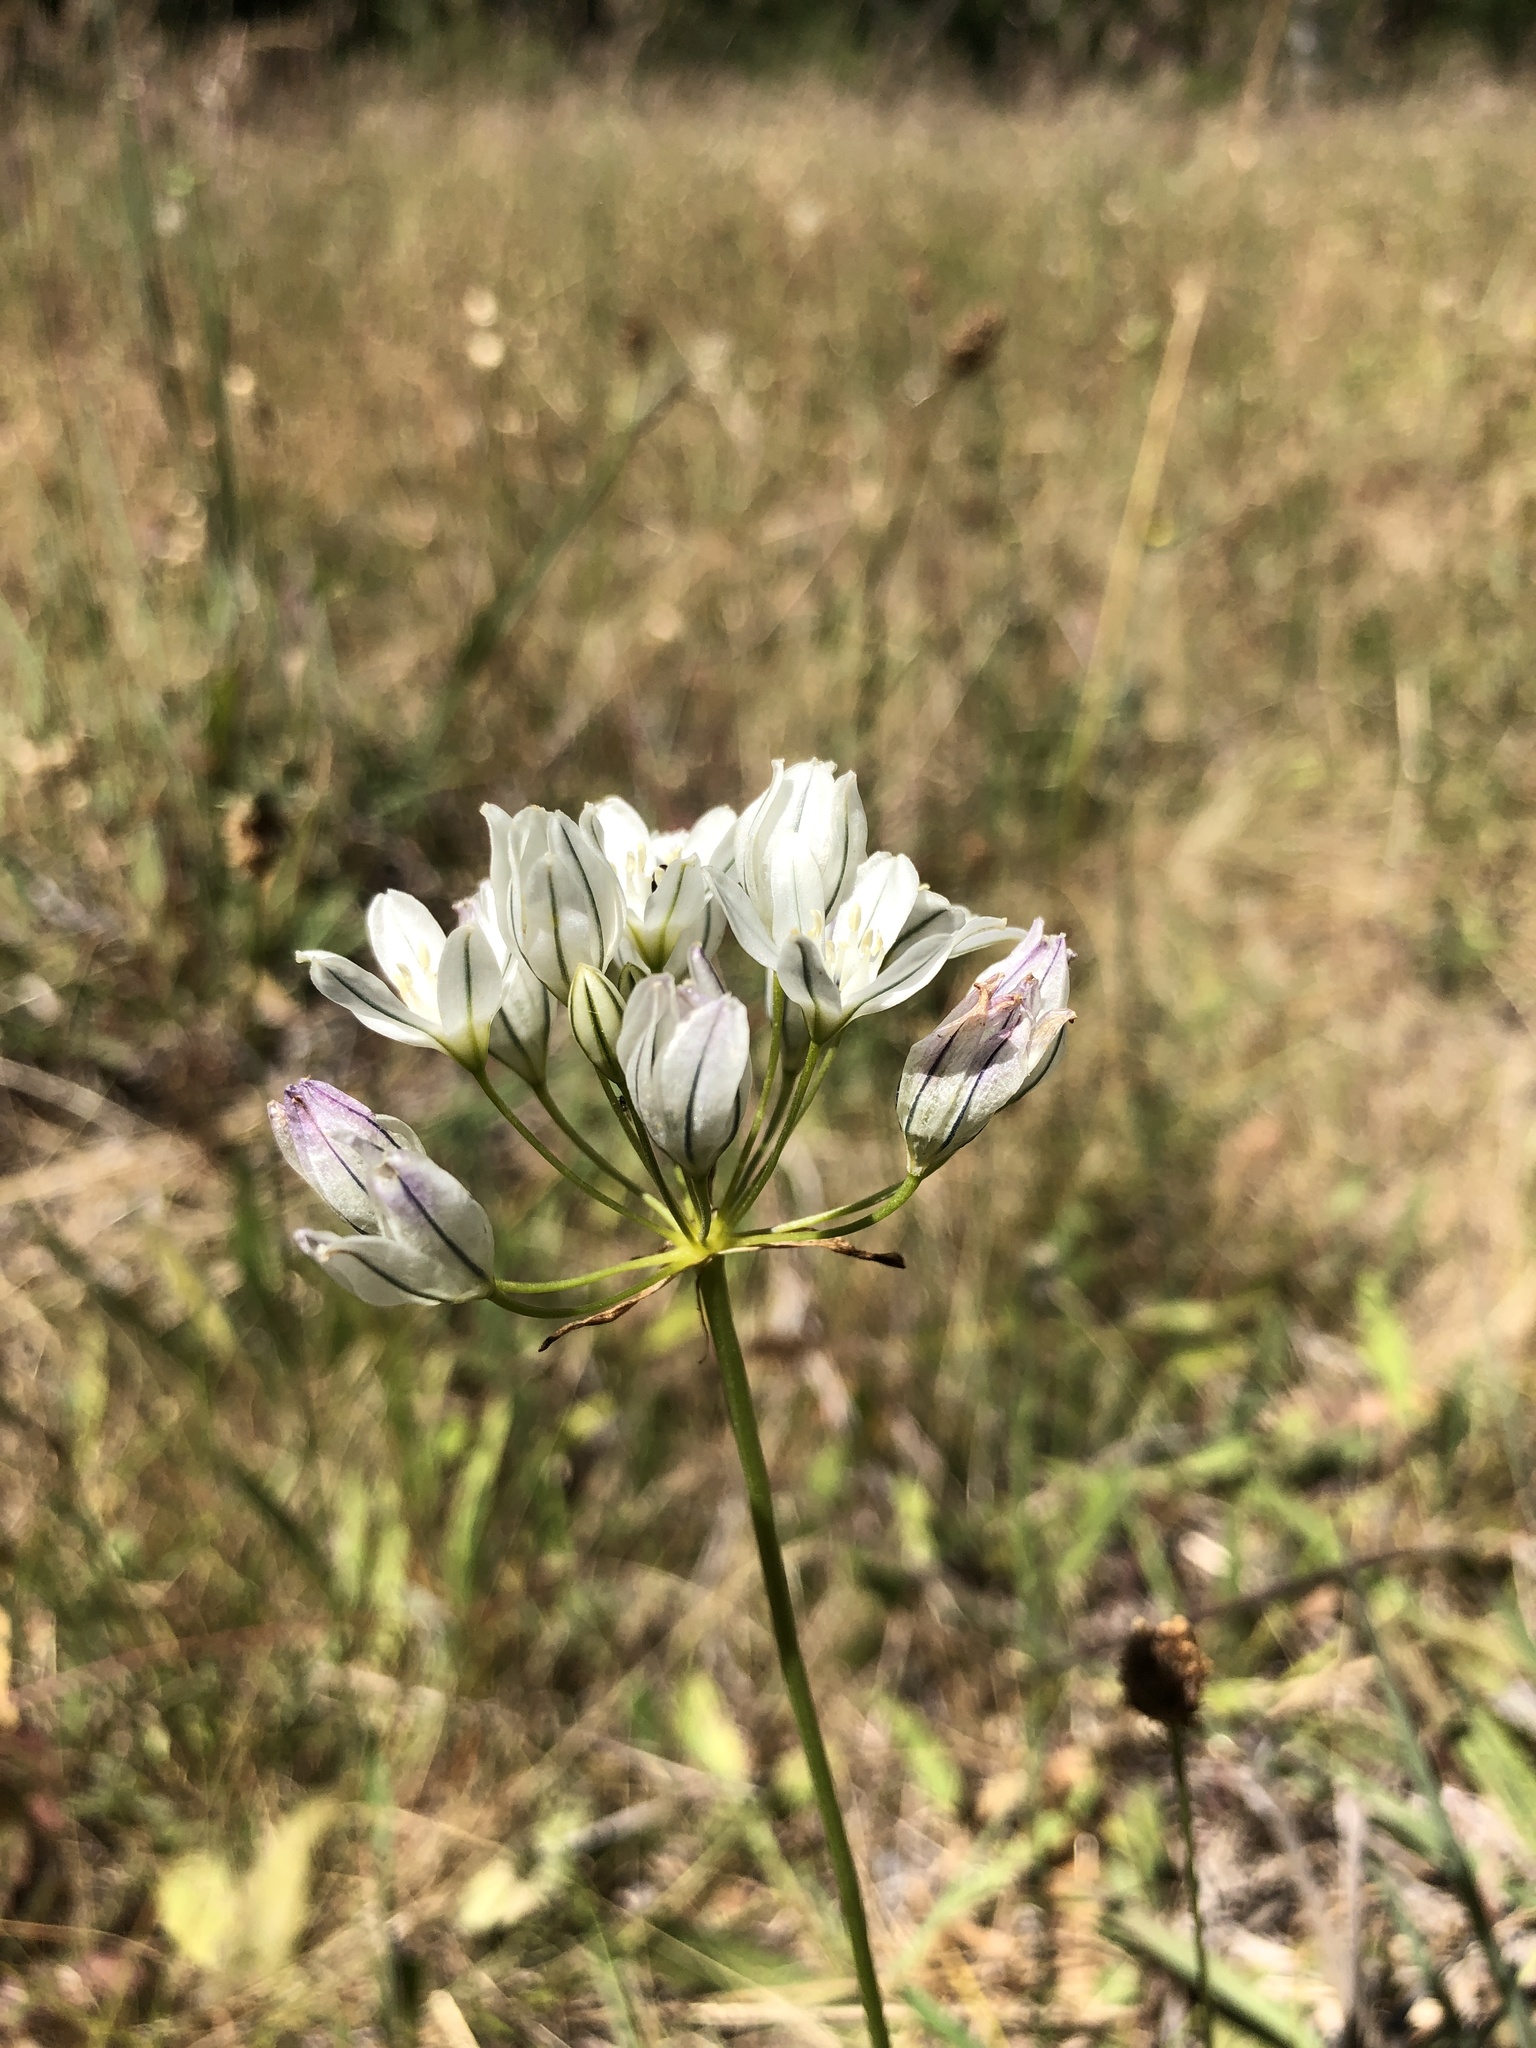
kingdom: Plantae
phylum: Tracheophyta
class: Liliopsida
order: Asparagales
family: Asparagaceae
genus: Triteleia
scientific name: Triteleia hyacinthina
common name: White brodiaea
